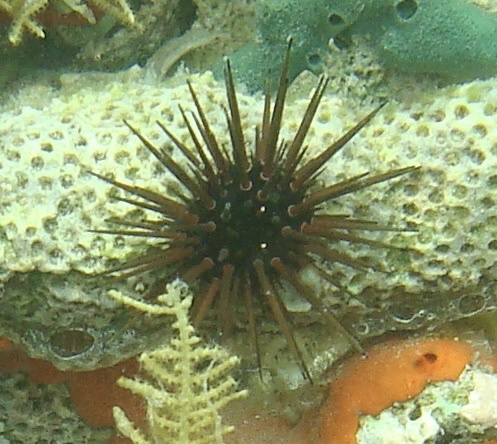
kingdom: Animalia
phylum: Echinodermata
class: Echinoidea
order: Camarodonta
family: Echinometridae
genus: Echinometra
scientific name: Echinometra viridis
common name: Reef urchin
